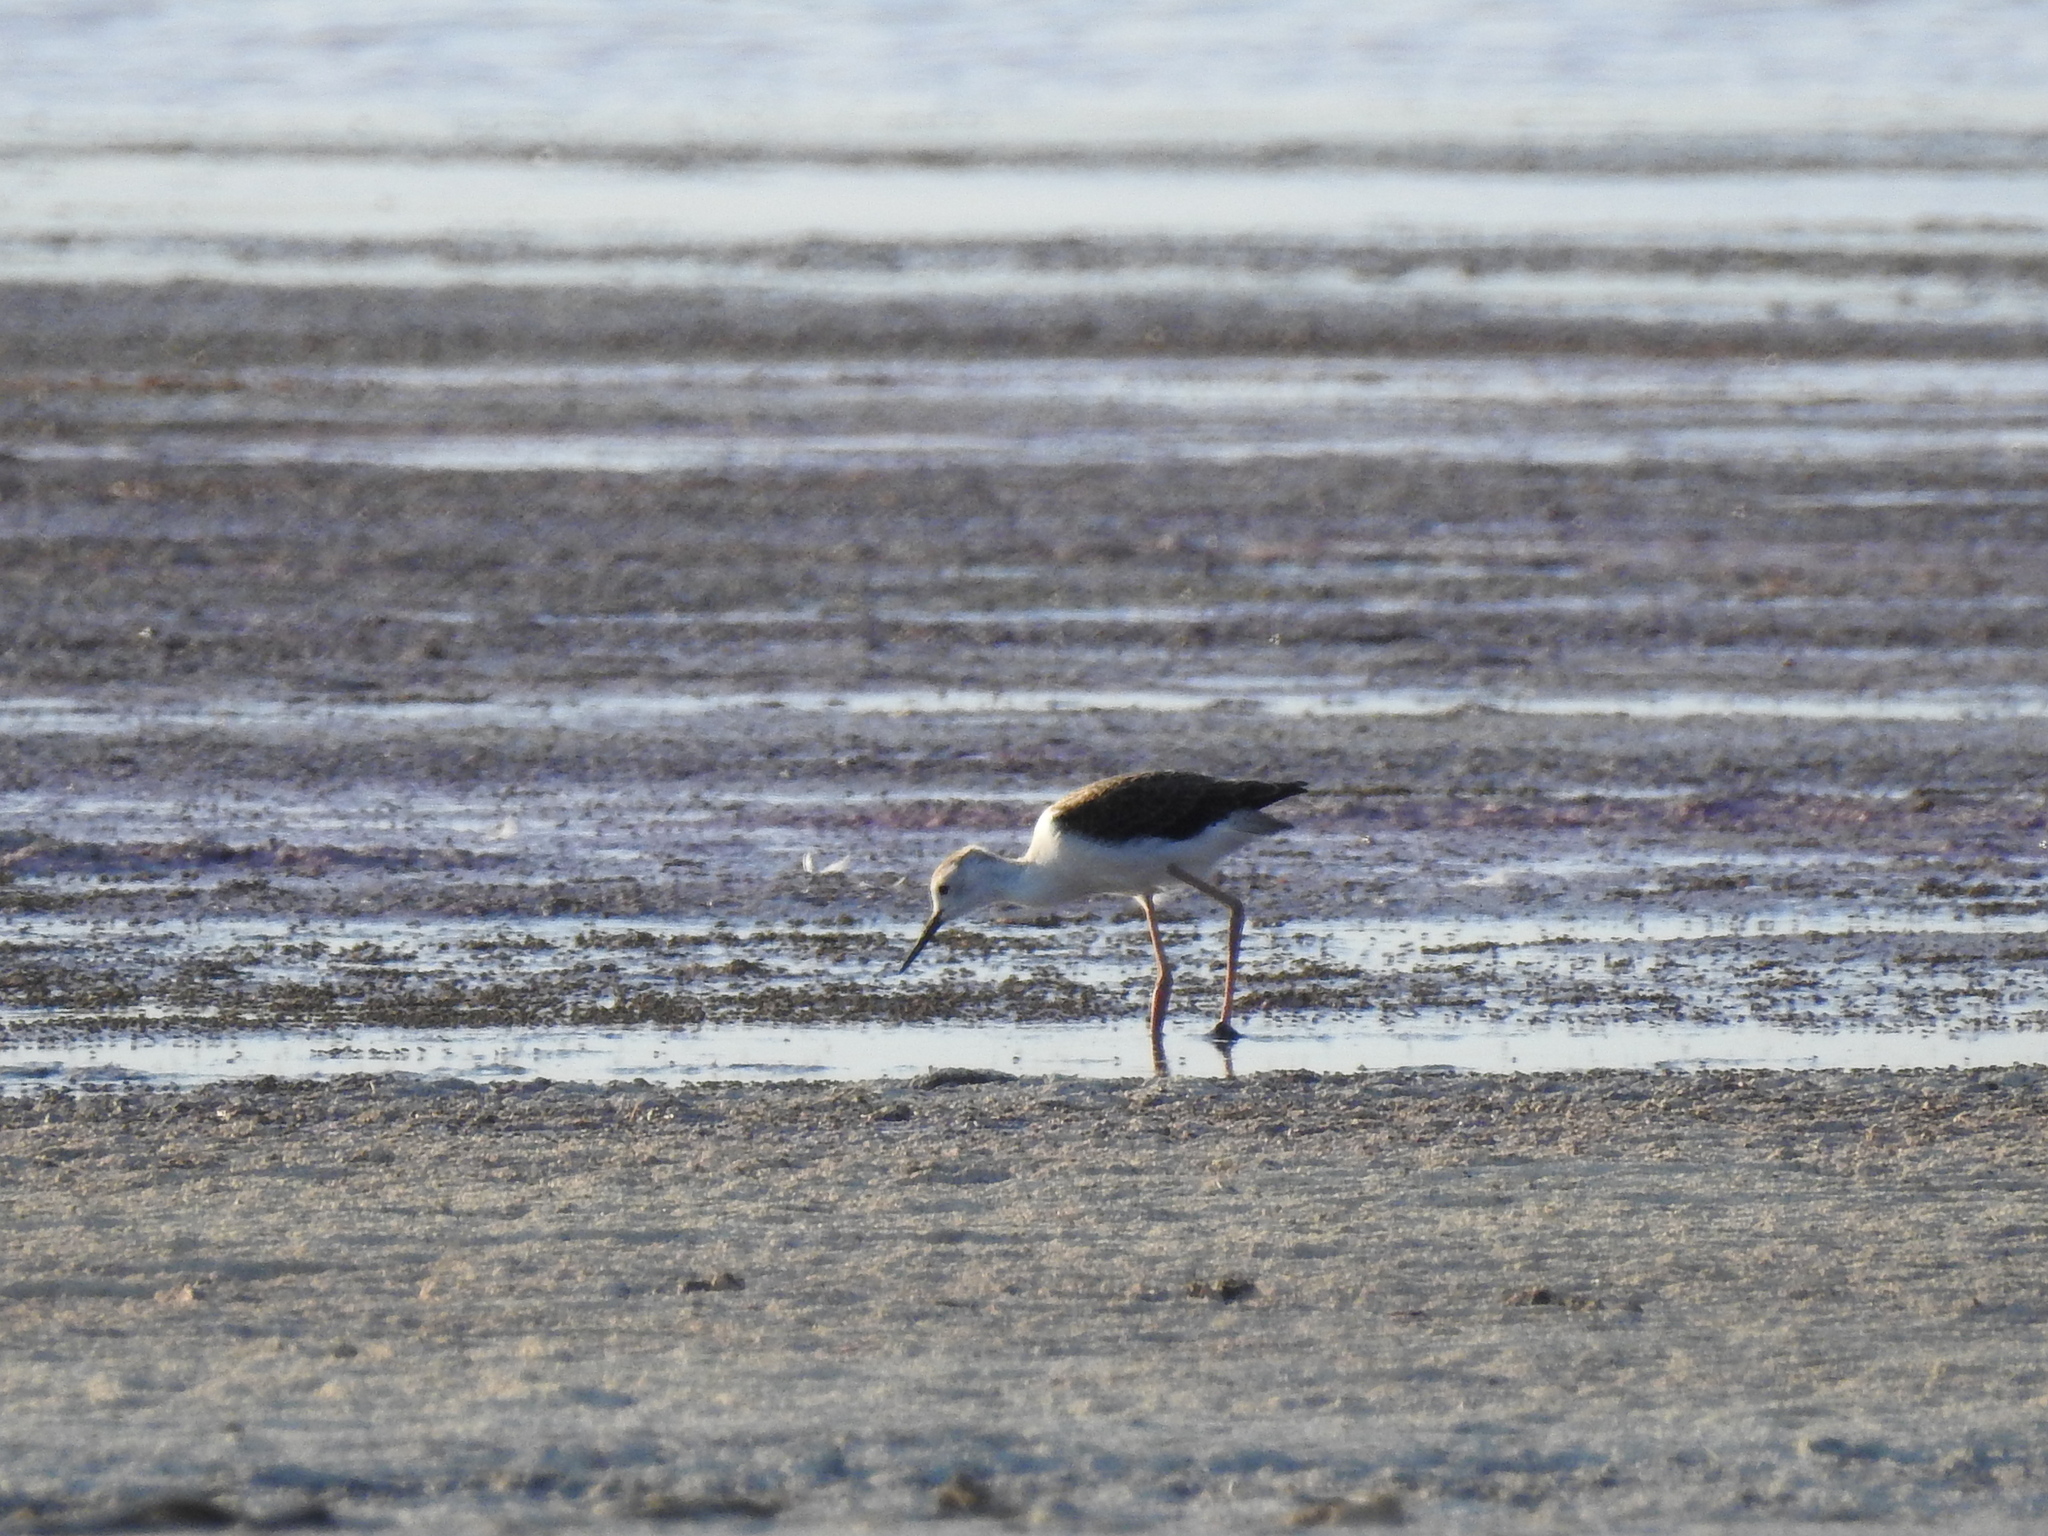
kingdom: Animalia
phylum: Chordata
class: Aves
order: Charadriiformes
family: Recurvirostridae
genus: Himantopus
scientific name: Himantopus himantopus
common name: Black-winged stilt
